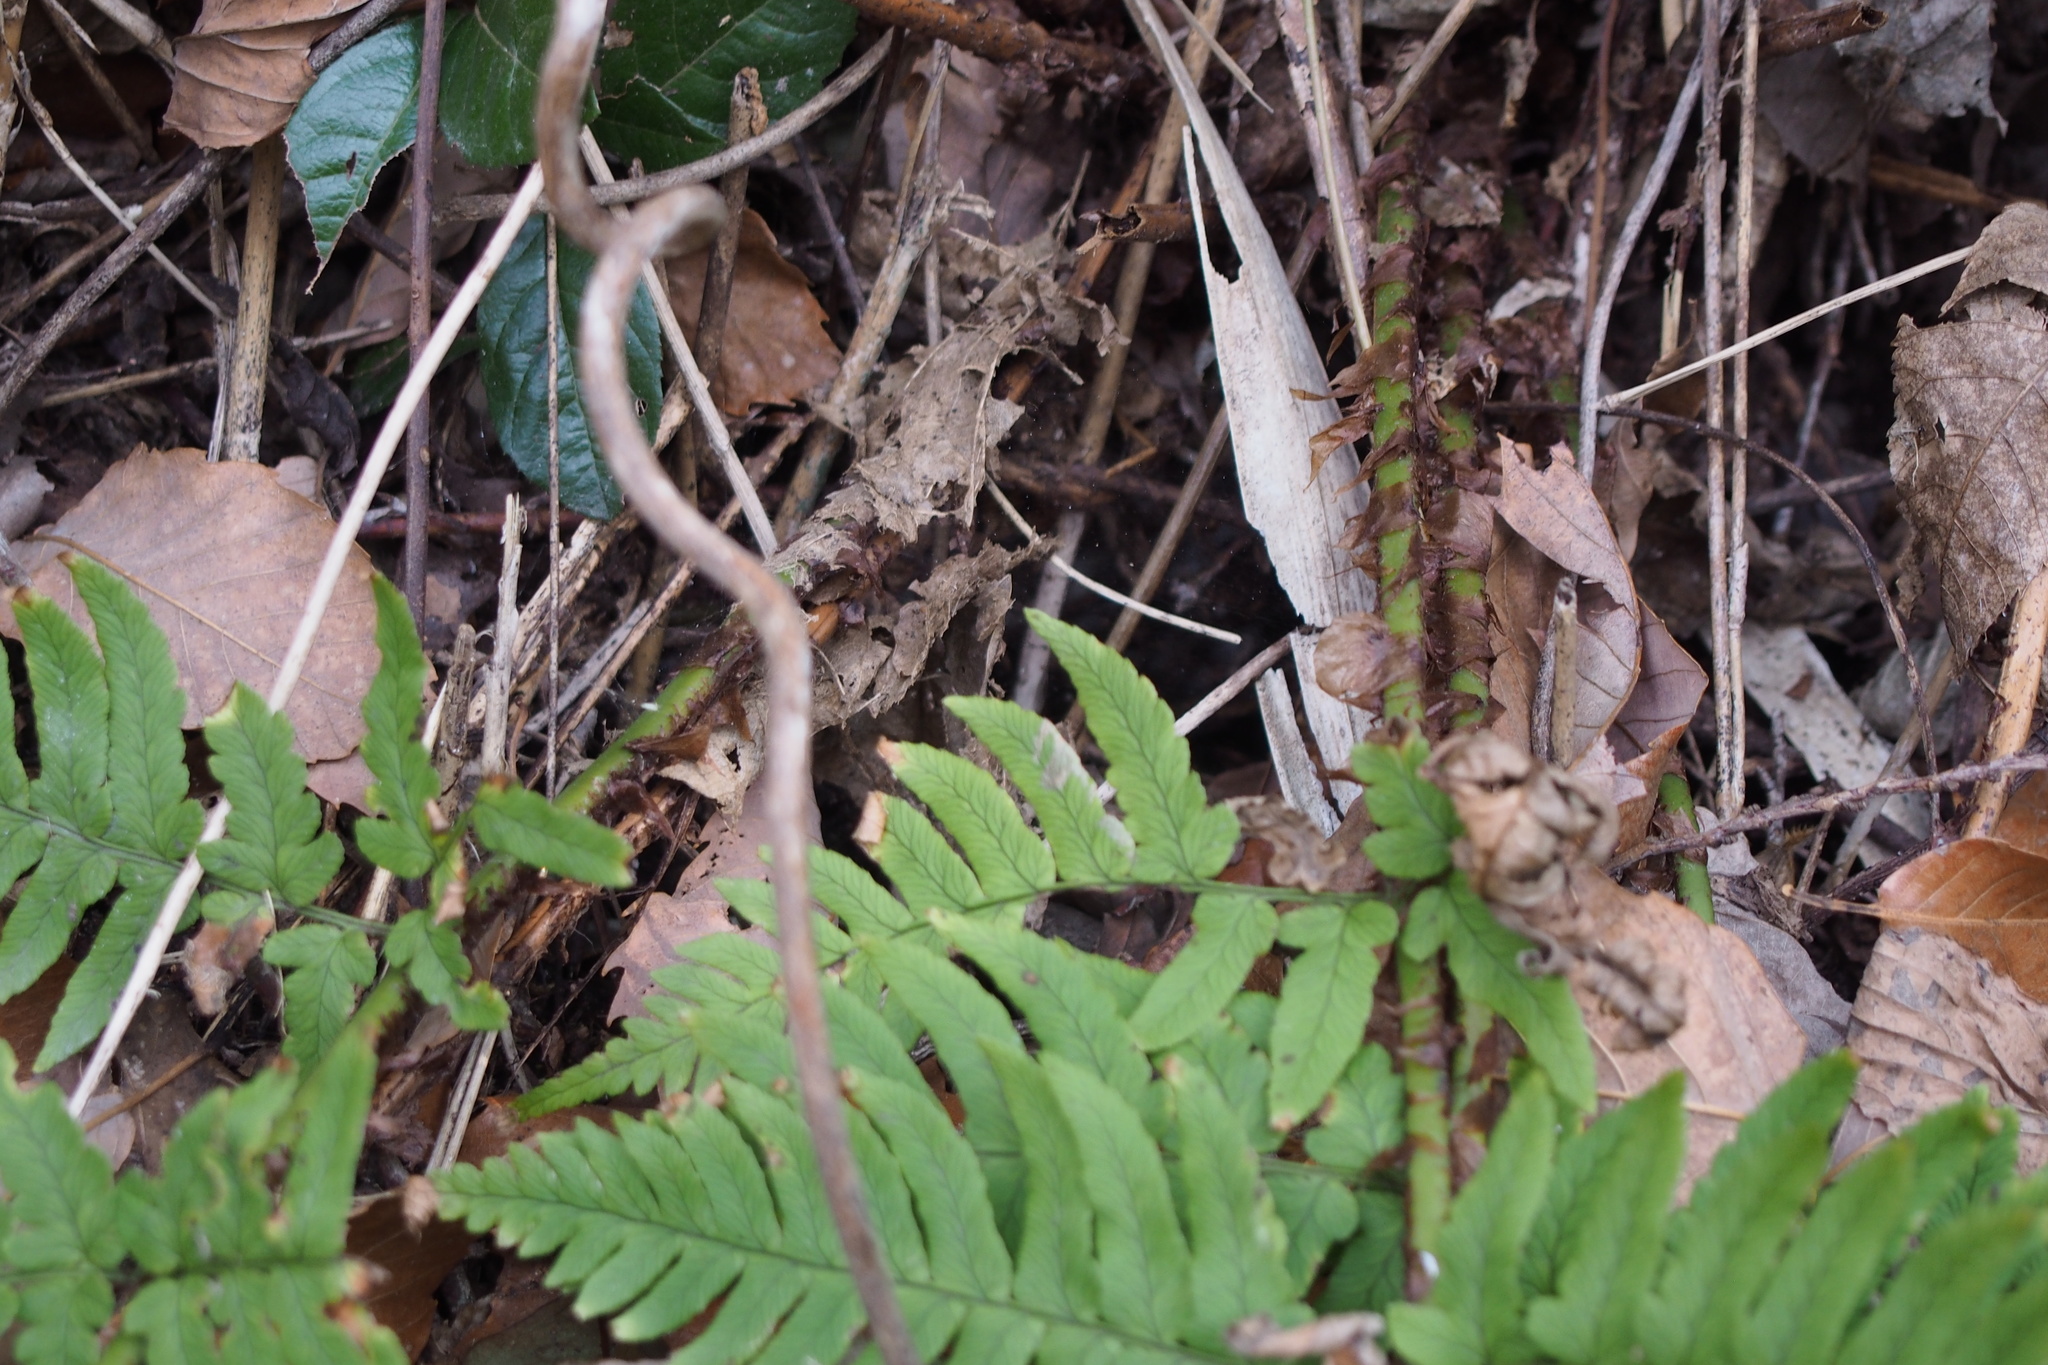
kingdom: Plantae
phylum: Tracheophyta
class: Polypodiopsida
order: Polypodiales
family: Dryopteridaceae
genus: Dryopteris
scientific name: Dryopteris lacera
